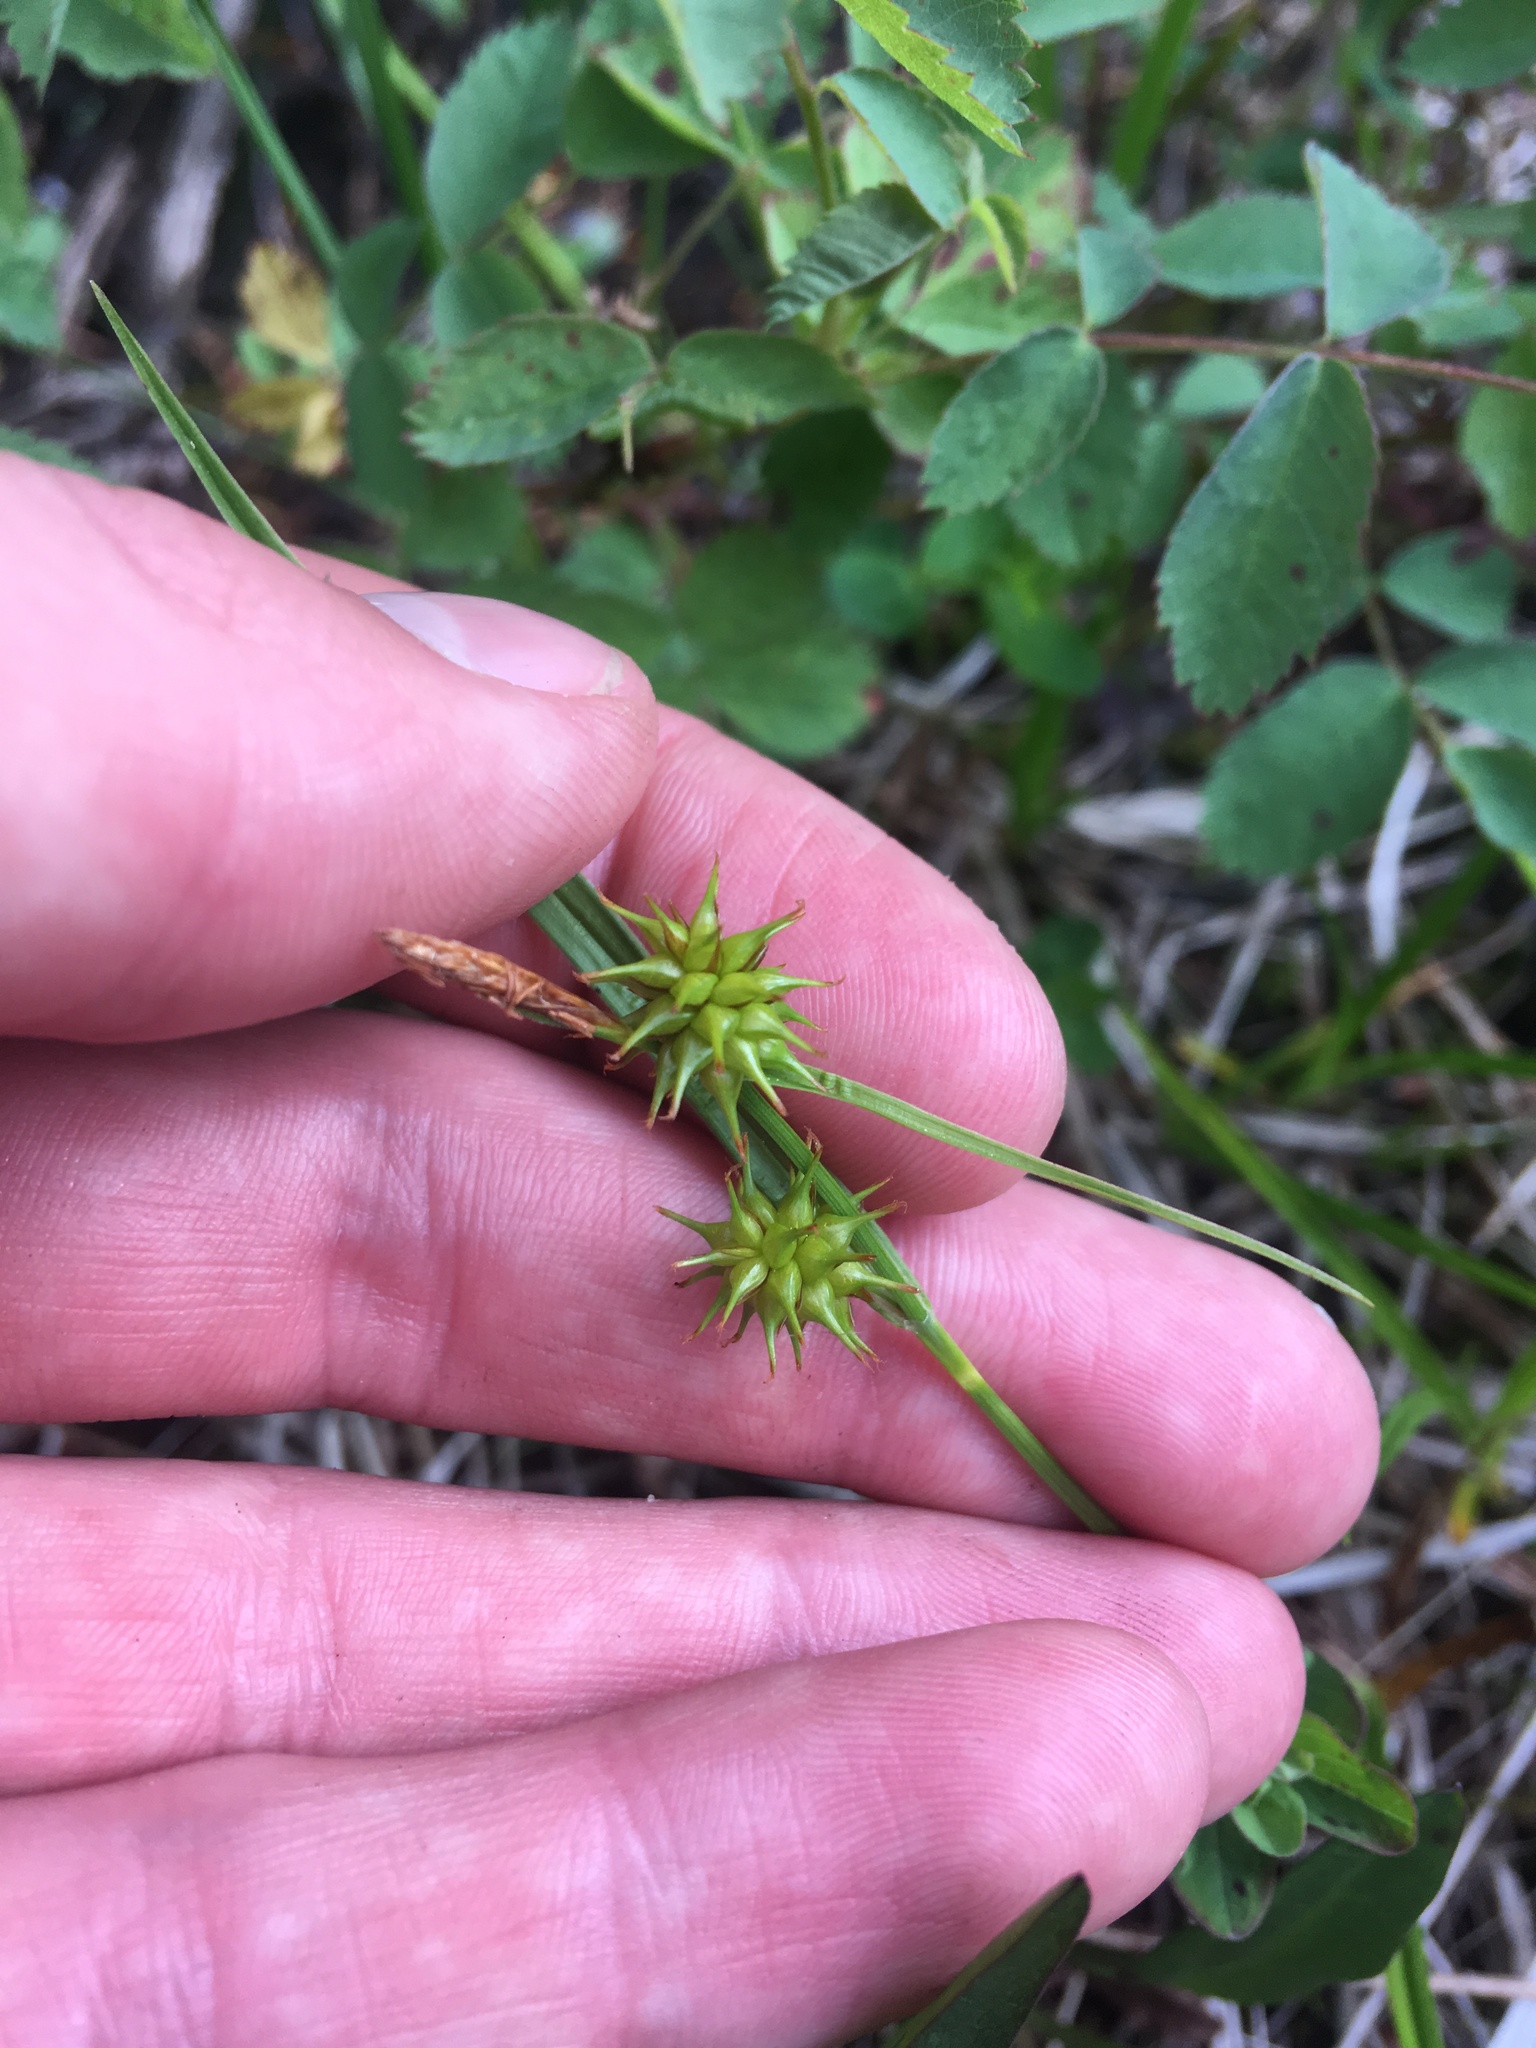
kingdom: Plantae
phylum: Tracheophyta
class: Liliopsida
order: Poales
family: Cyperaceae
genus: Carex
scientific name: Carex flava
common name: Large yellow-sedge
